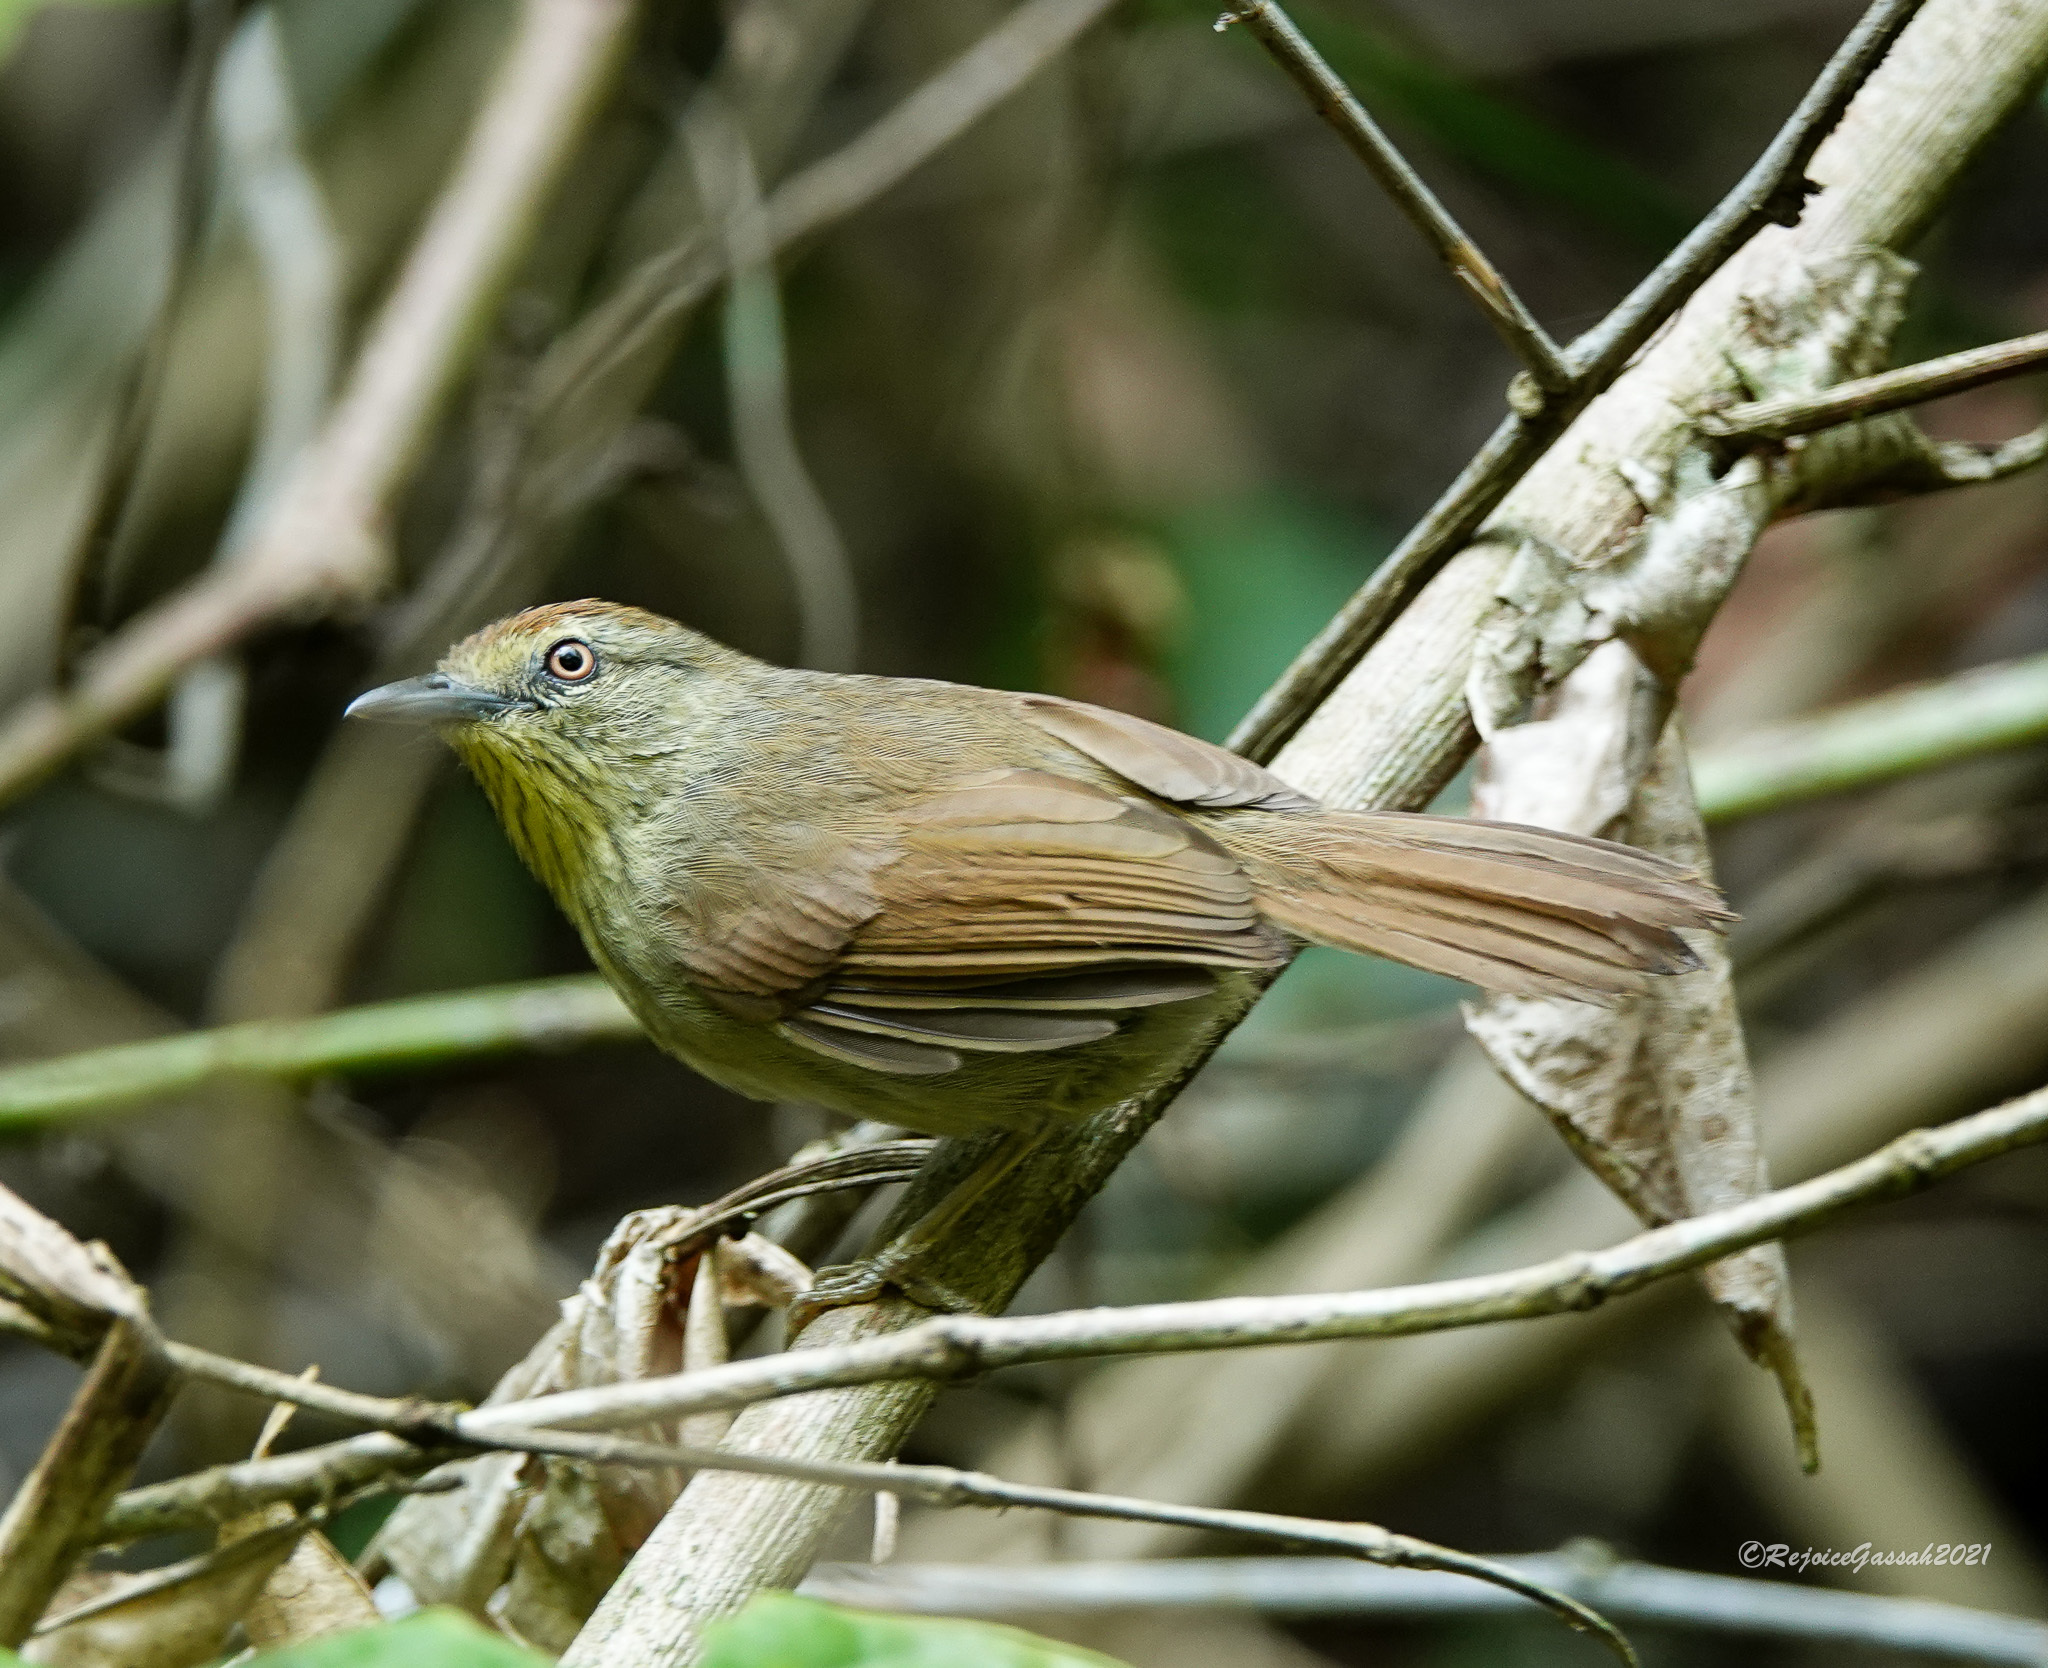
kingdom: Animalia
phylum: Chordata
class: Aves
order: Passeriformes
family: Timaliidae
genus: Macronus
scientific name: Macronus gularis
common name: Striped tit-babbler
